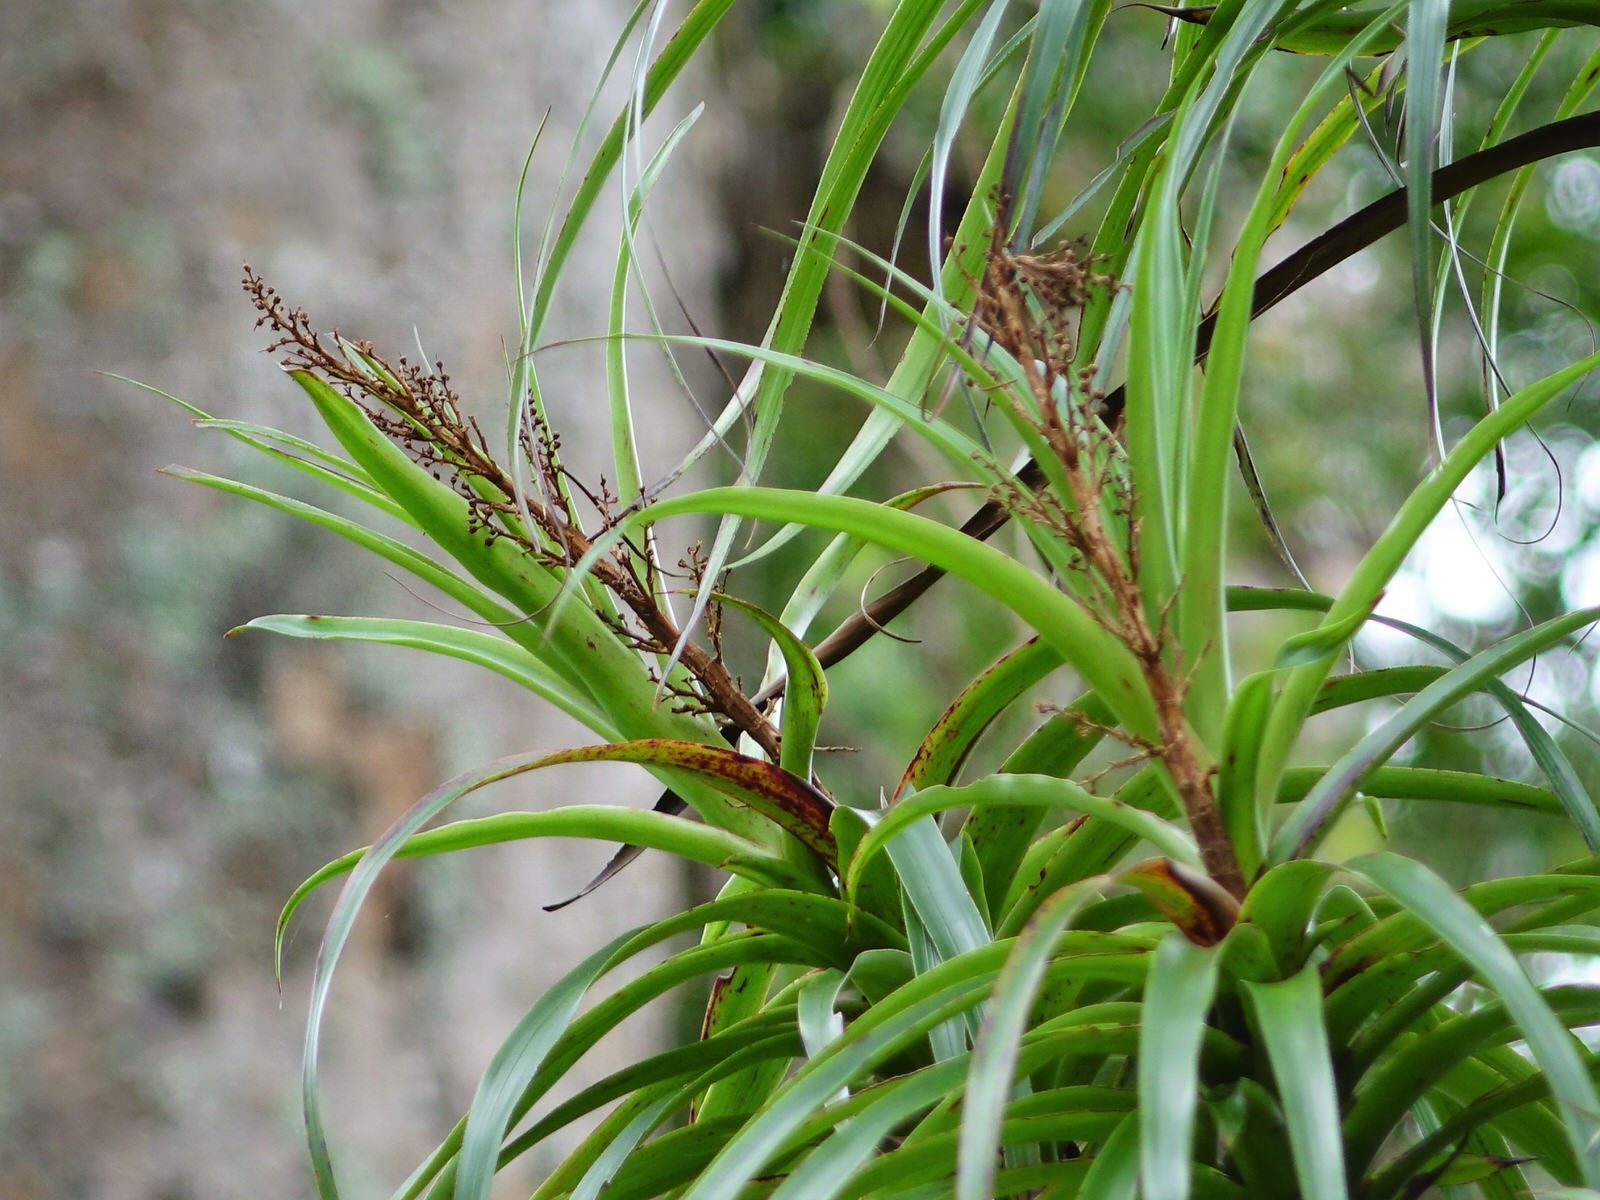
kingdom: Plantae
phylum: Tracheophyta
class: Magnoliopsida
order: Ericales
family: Ericaceae
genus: Dracophyllum
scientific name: Dracophyllum latifolium
